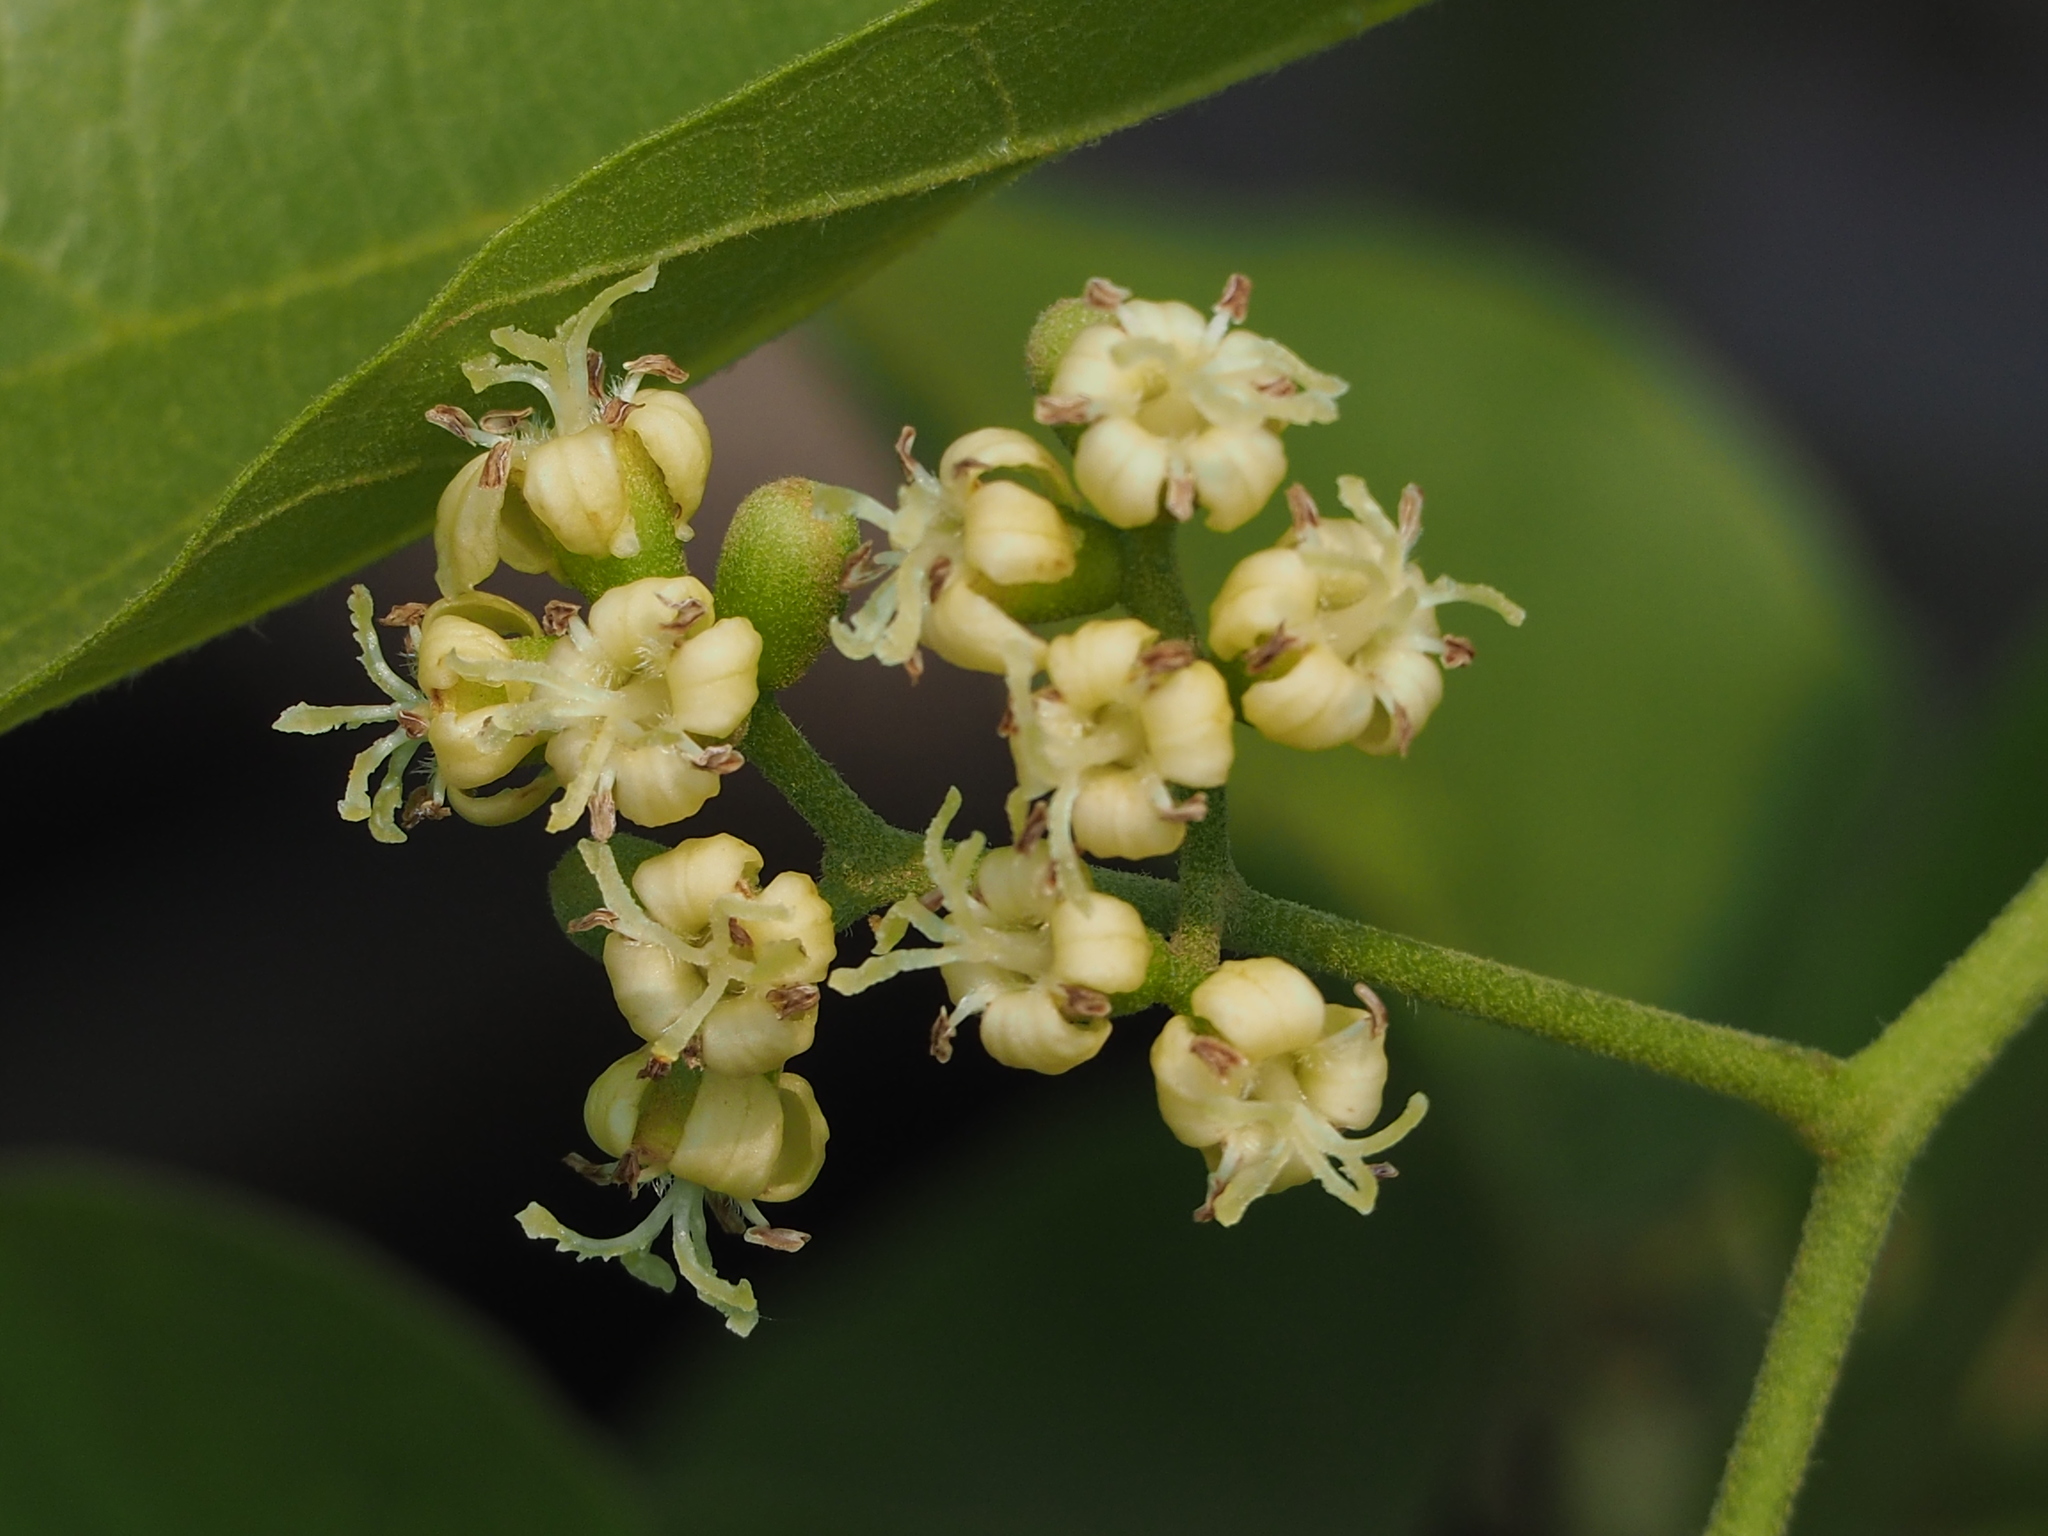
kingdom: Plantae
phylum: Tracheophyta
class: Magnoliopsida
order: Boraginales
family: Cordiaceae
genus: Cordia
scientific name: Cordia dichotoma
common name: Fragrant manjack
